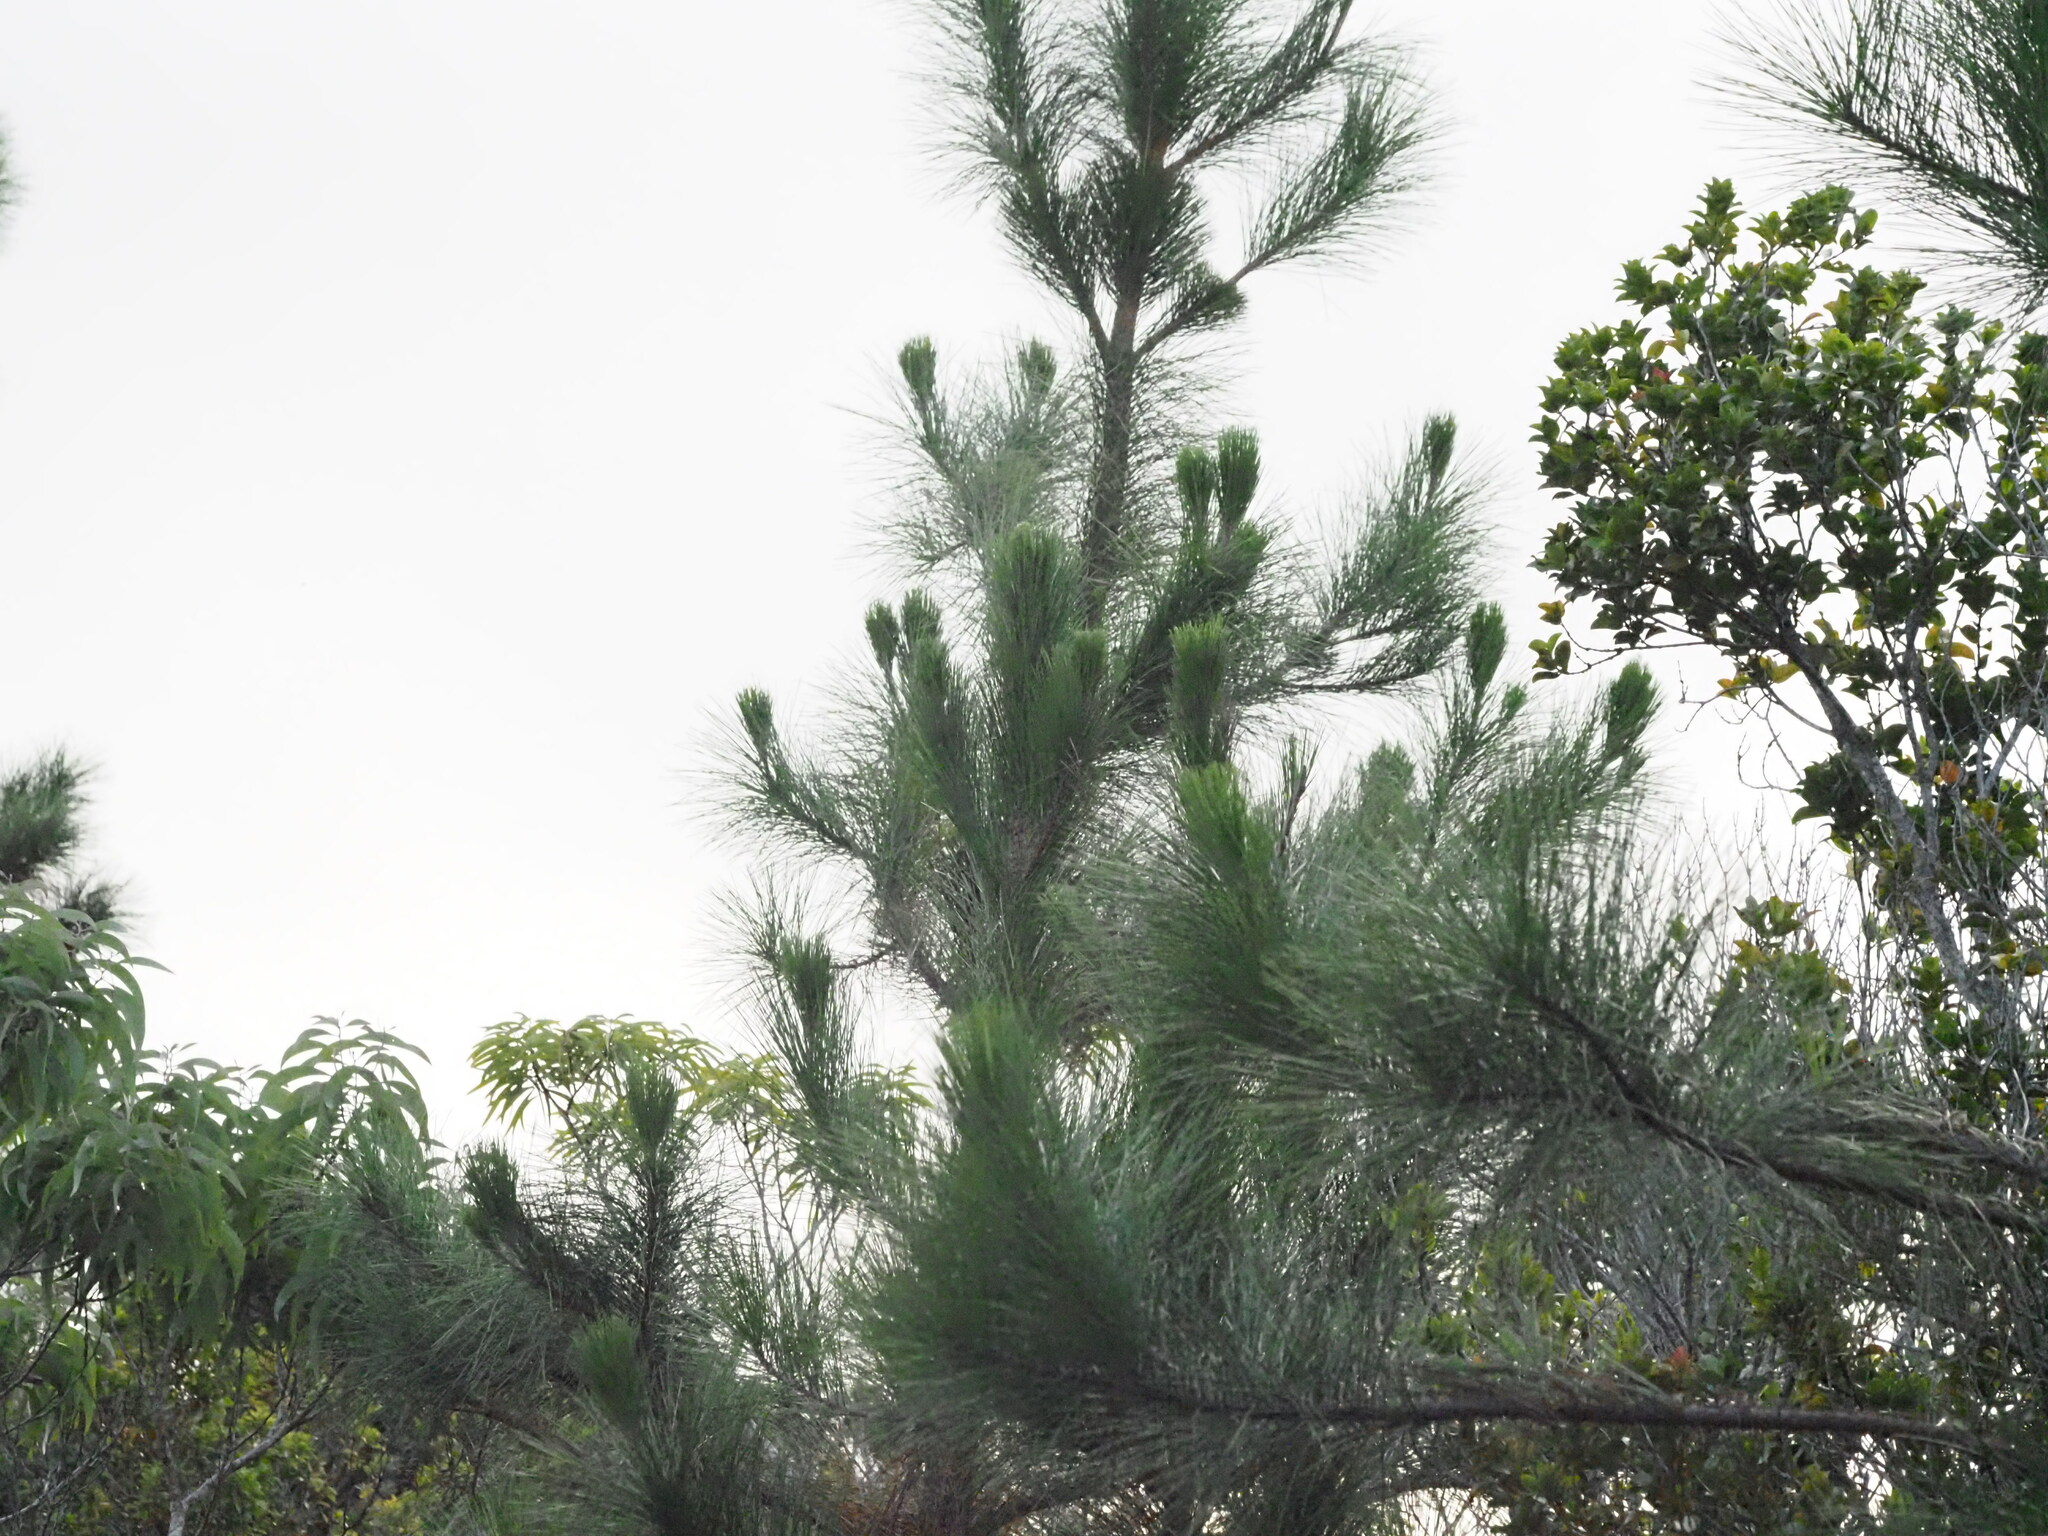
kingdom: Plantae
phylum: Tracheophyta
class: Pinopsida
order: Pinales
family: Pinaceae
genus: Pinus
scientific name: Pinus elliottii
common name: Slash pine
